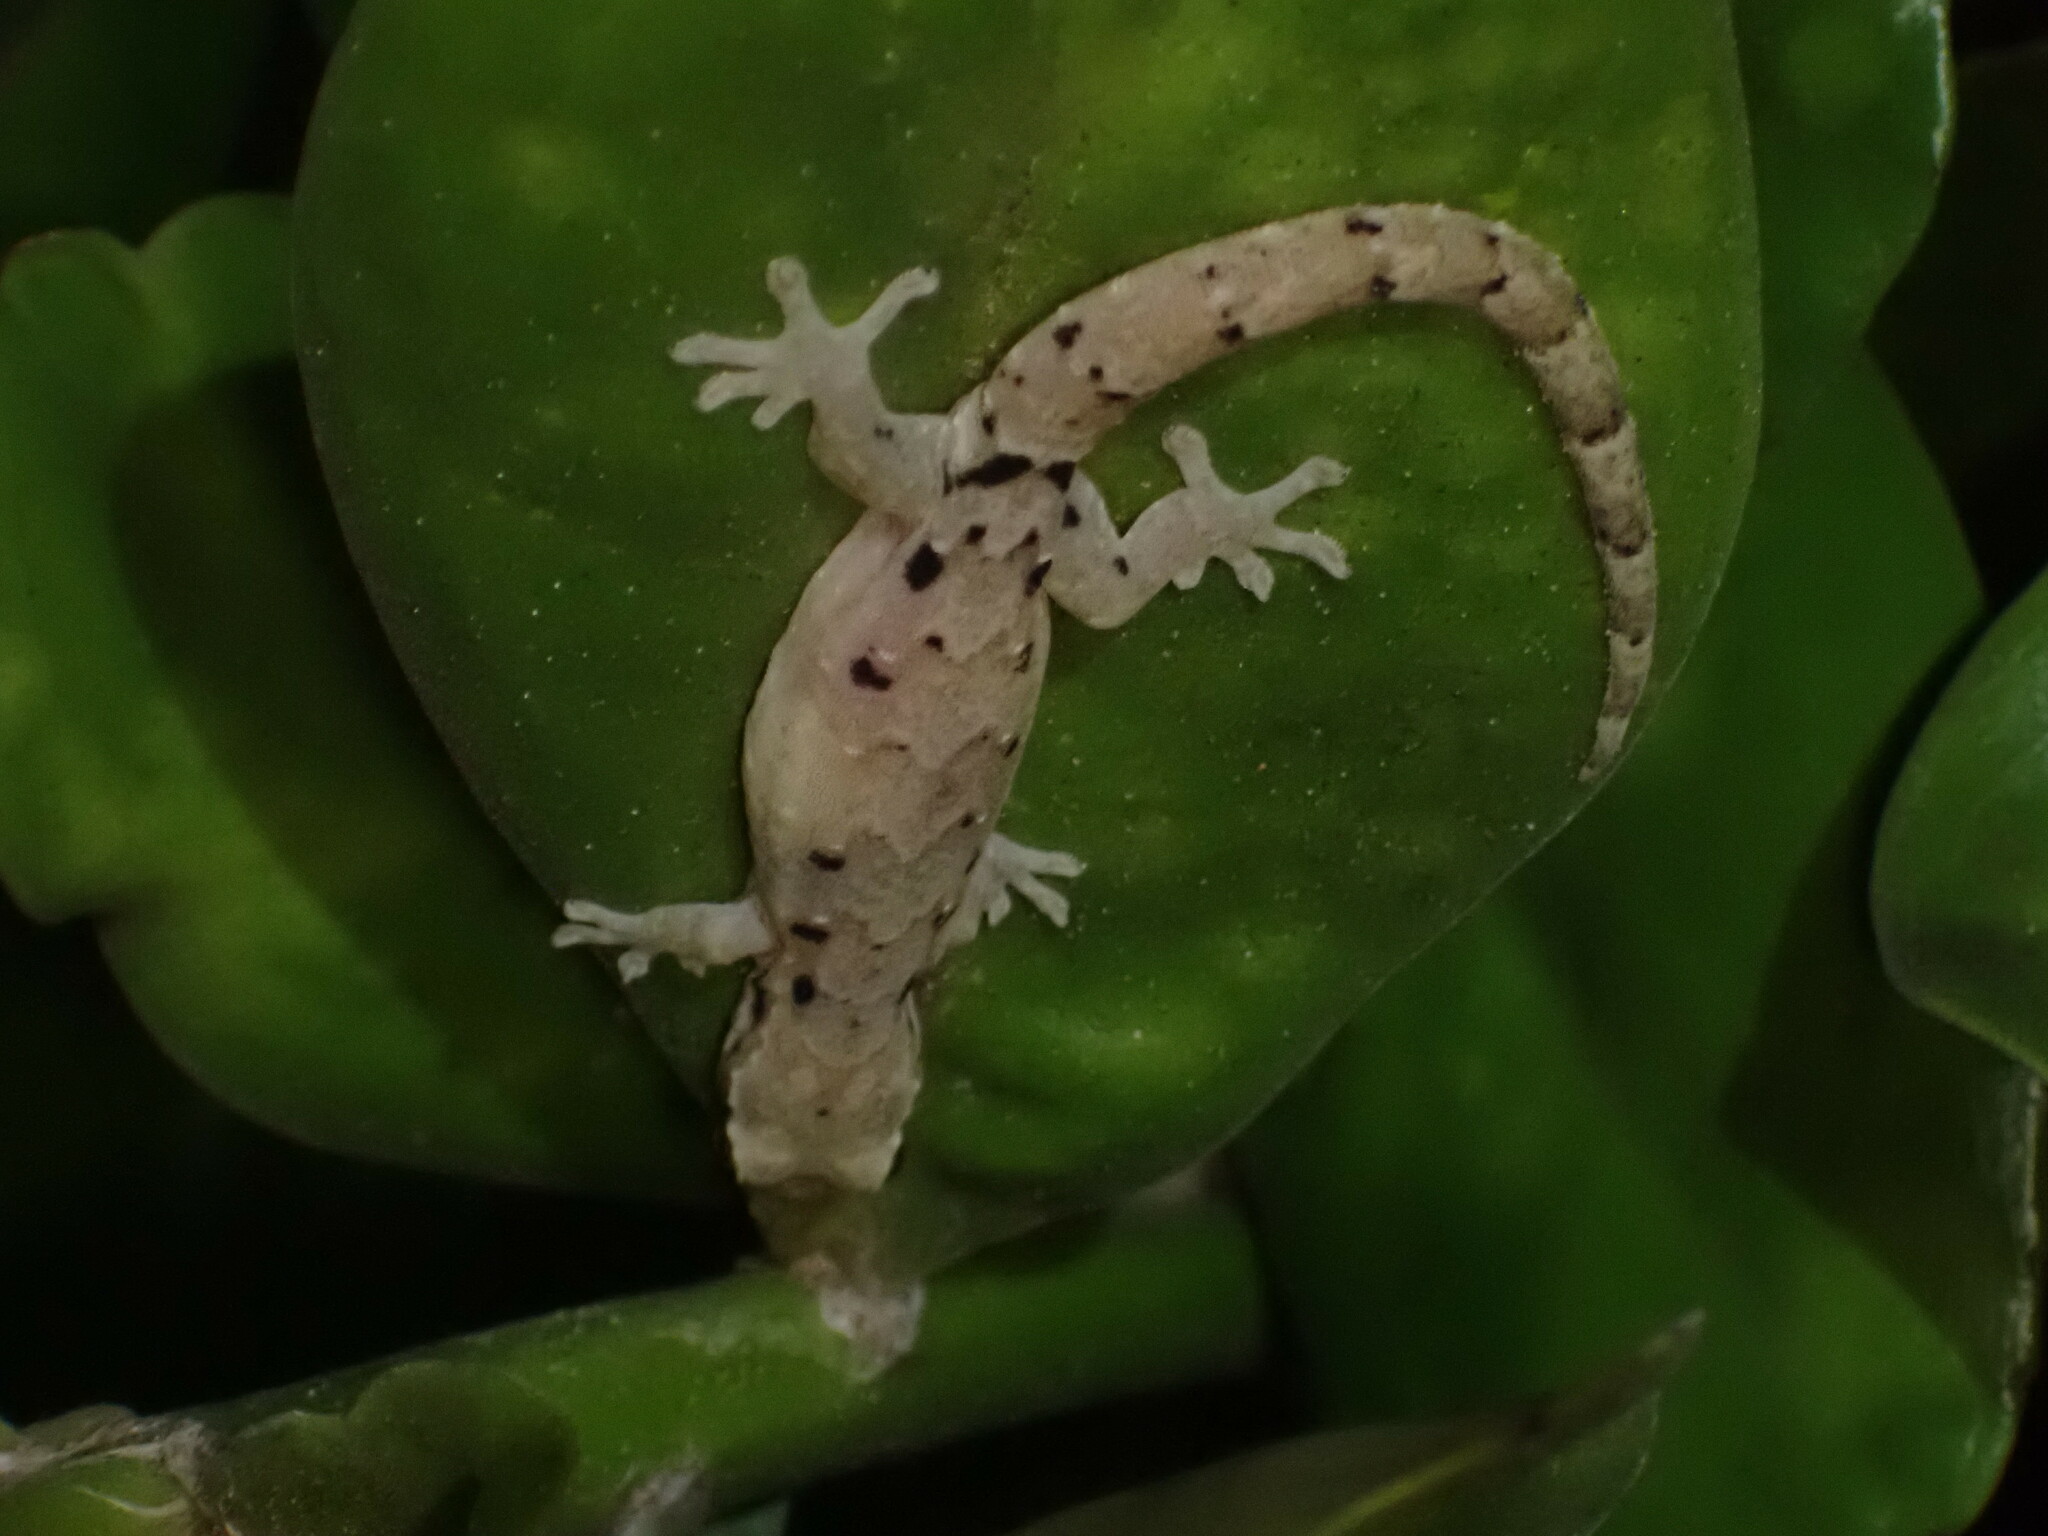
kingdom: Animalia
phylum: Chordata
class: Squamata
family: Gekkonidae
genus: Lepidodactylus
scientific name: Lepidodactylus lugubris
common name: Mourning gecko
